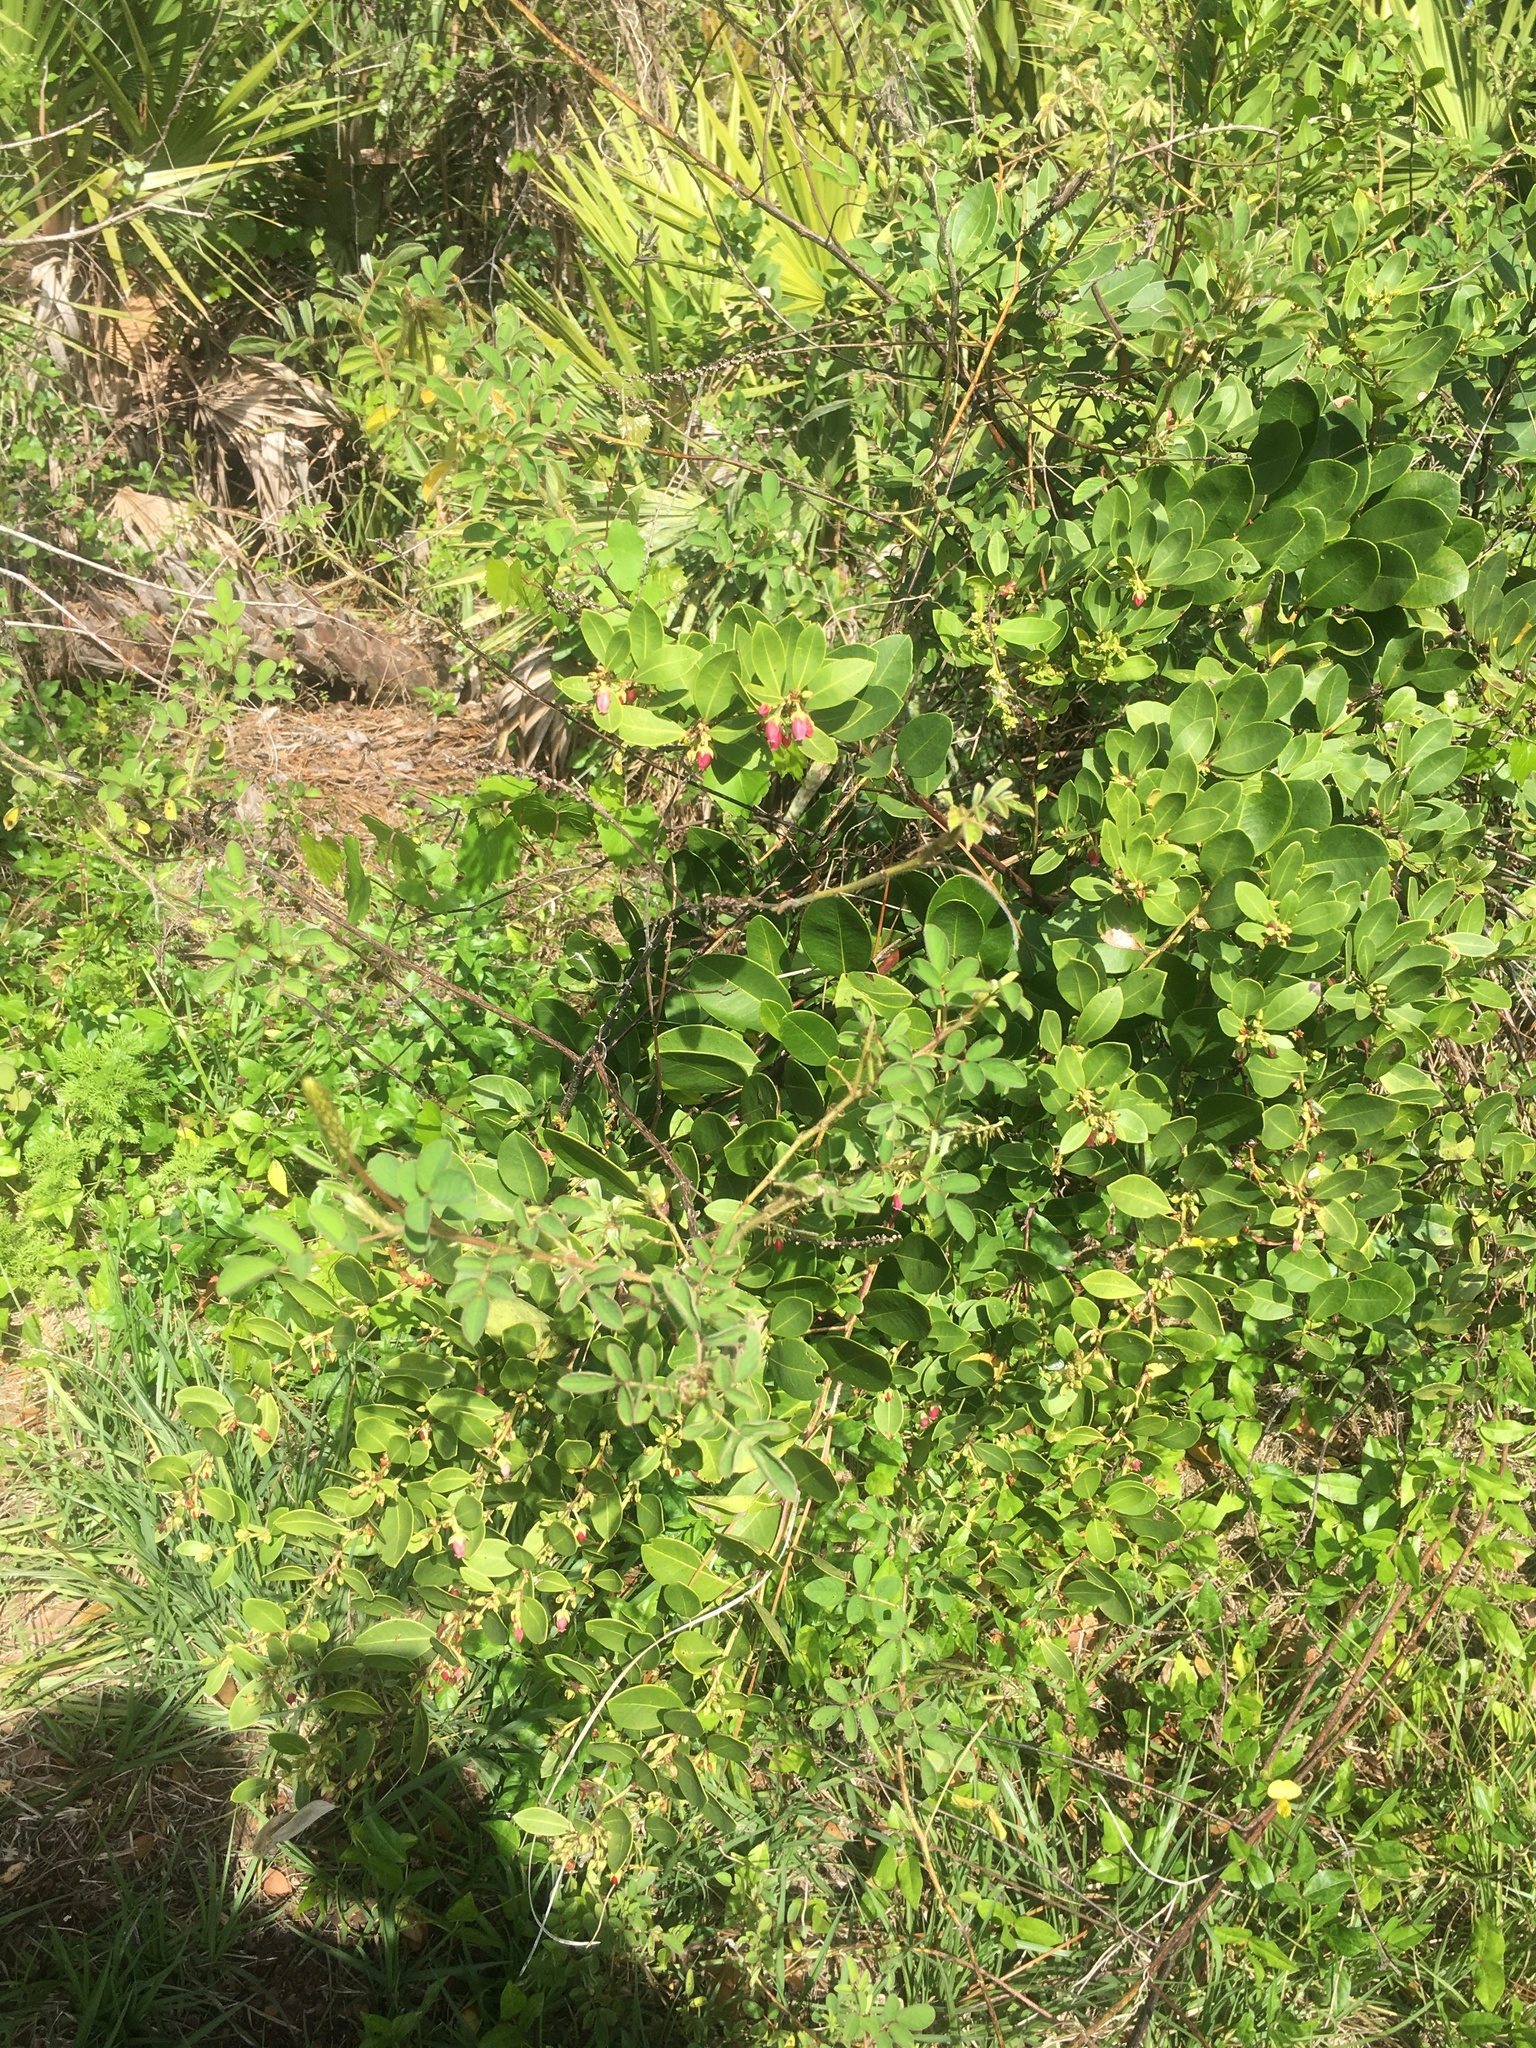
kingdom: Plantae
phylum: Tracheophyta
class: Magnoliopsida
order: Ericales
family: Ericaceae
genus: Lyonia
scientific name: Lyonia lucida
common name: Fetterbush
